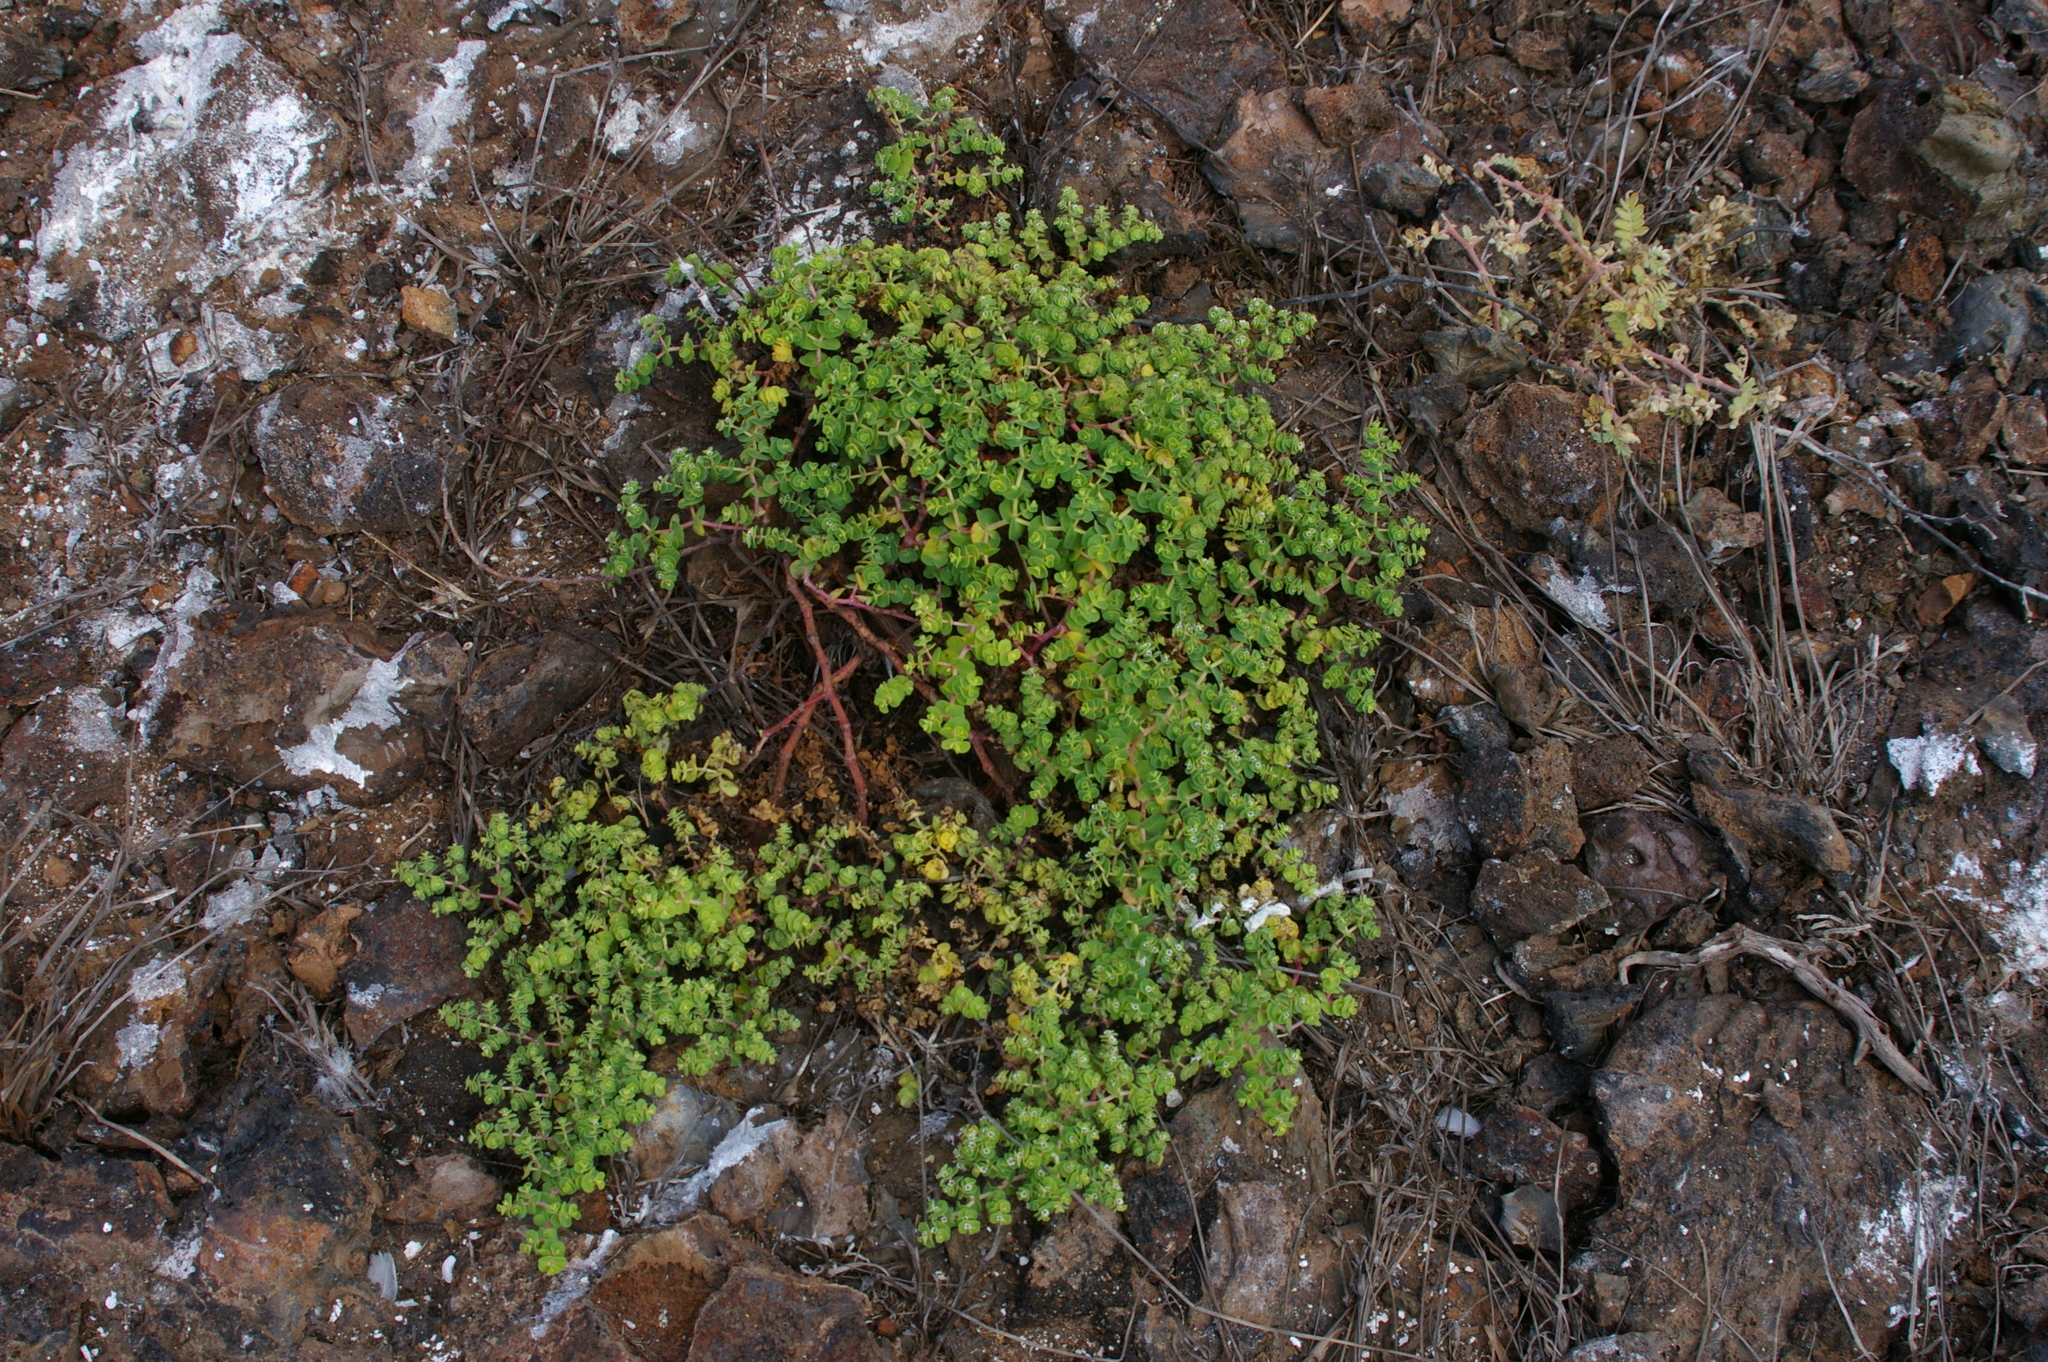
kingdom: Plantae
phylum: Tracheophyta
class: Magnoliopsida
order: Malpighiales
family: Euphorbiaceae
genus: Euphorbia
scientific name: Euphorbia amplexicaulis
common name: Chamaesyce
